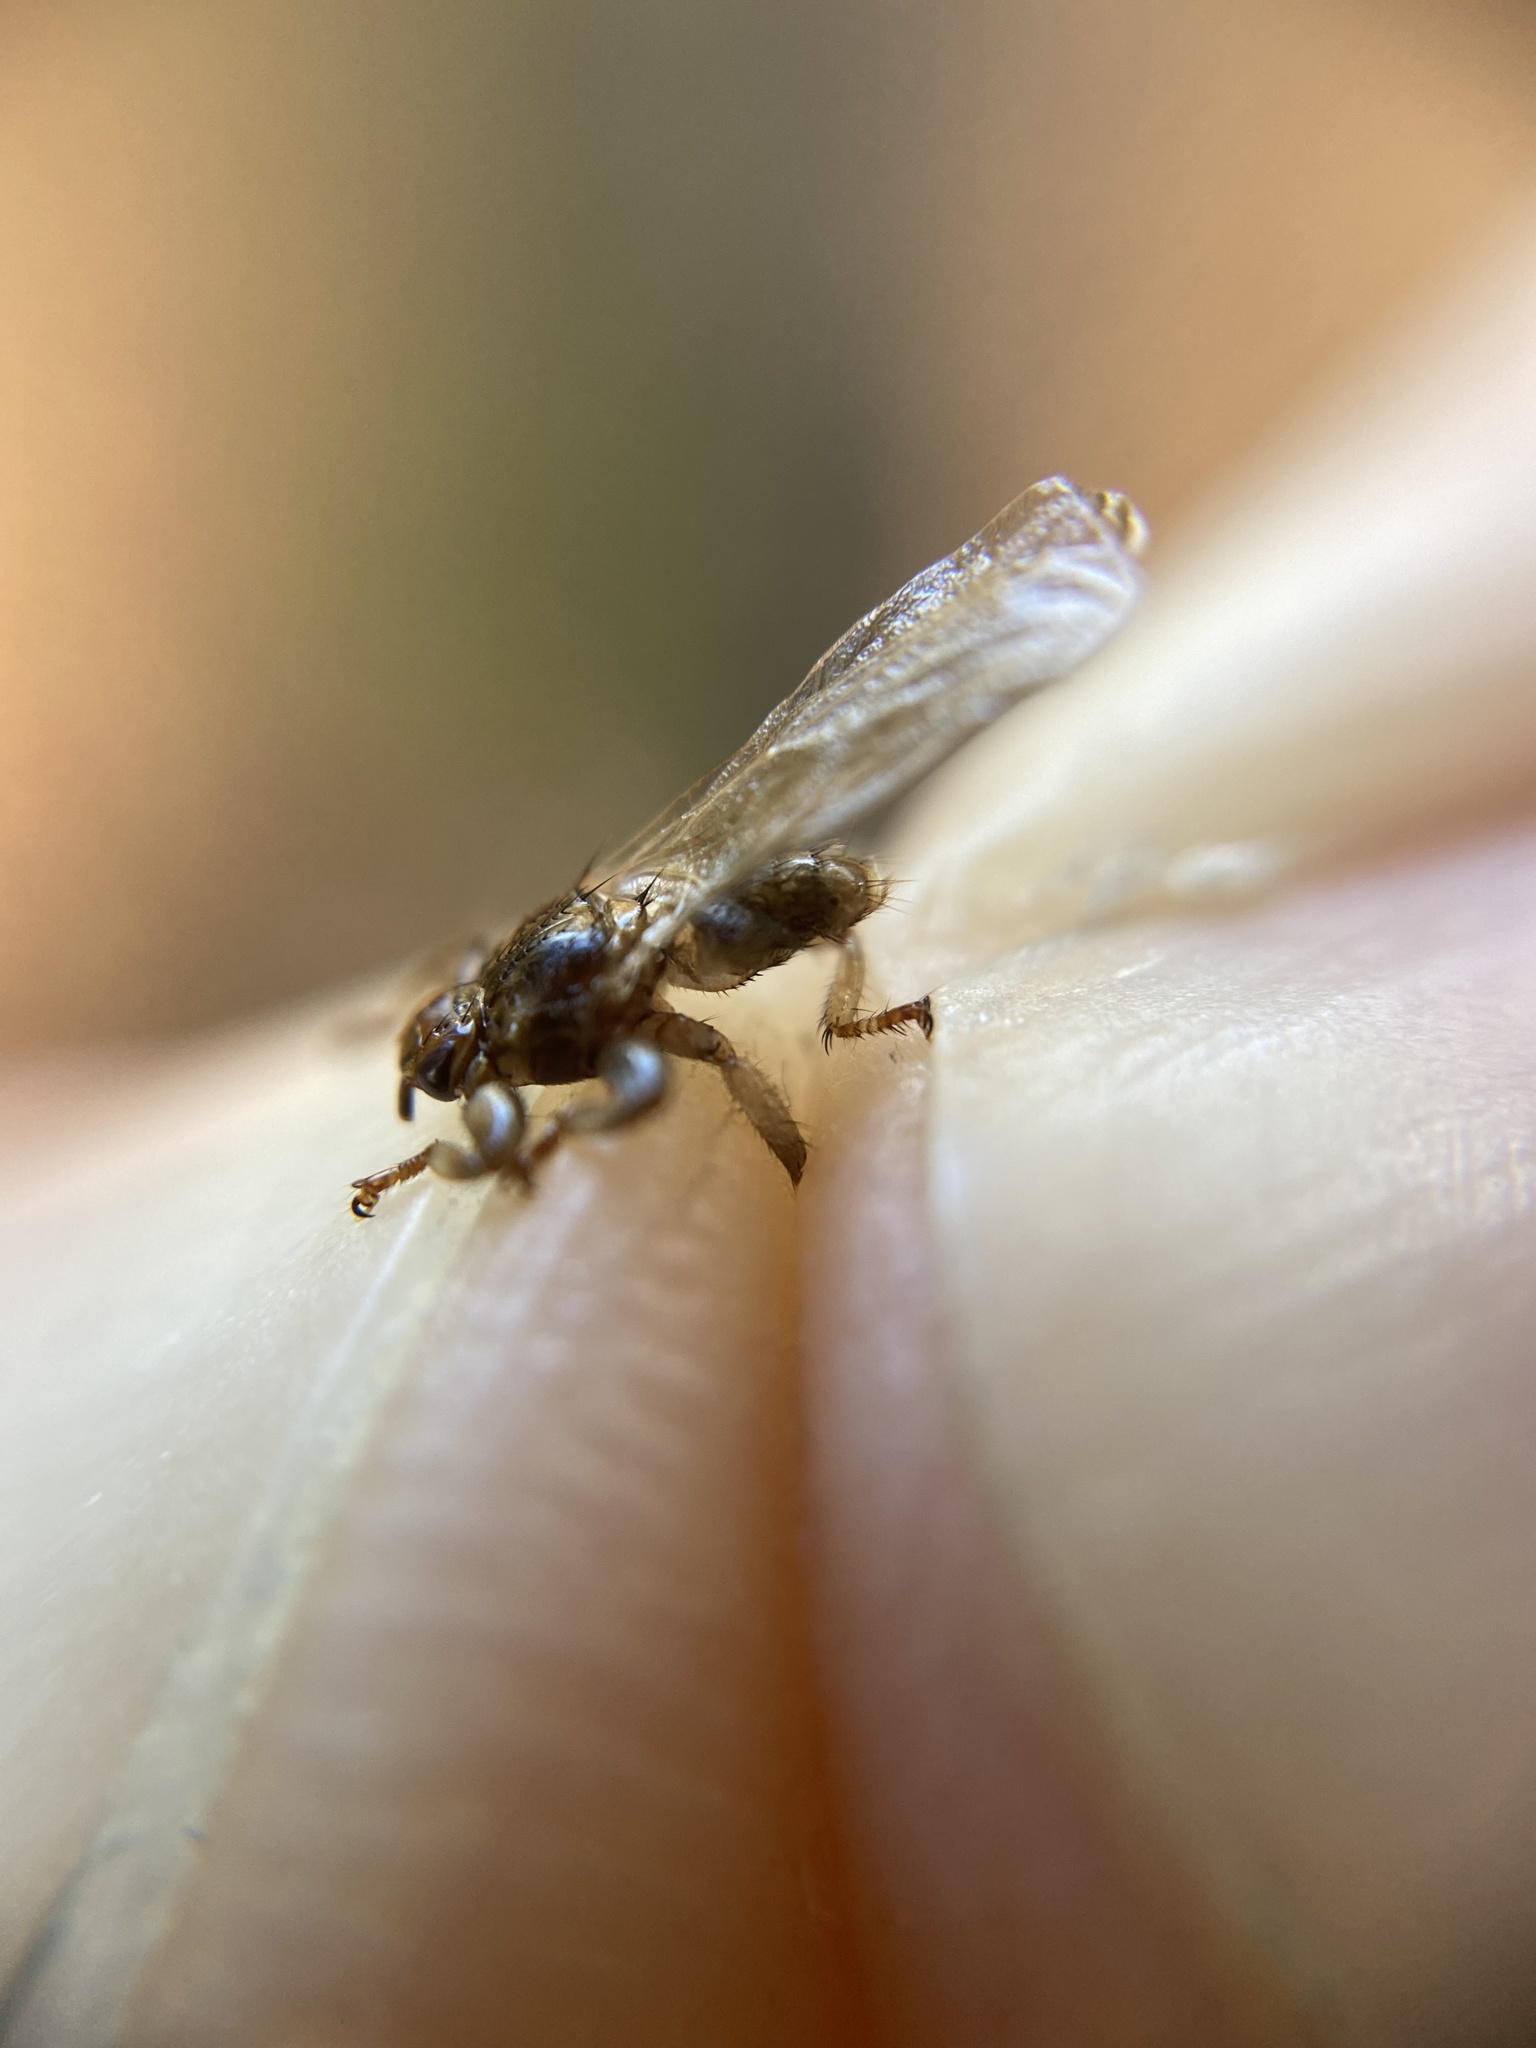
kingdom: Animalia
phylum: Arthropoda
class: Insecta
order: Diptera
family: Hippoboscidae
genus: Lipoptena
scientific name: Lipoptena cervi
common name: Deer ked
